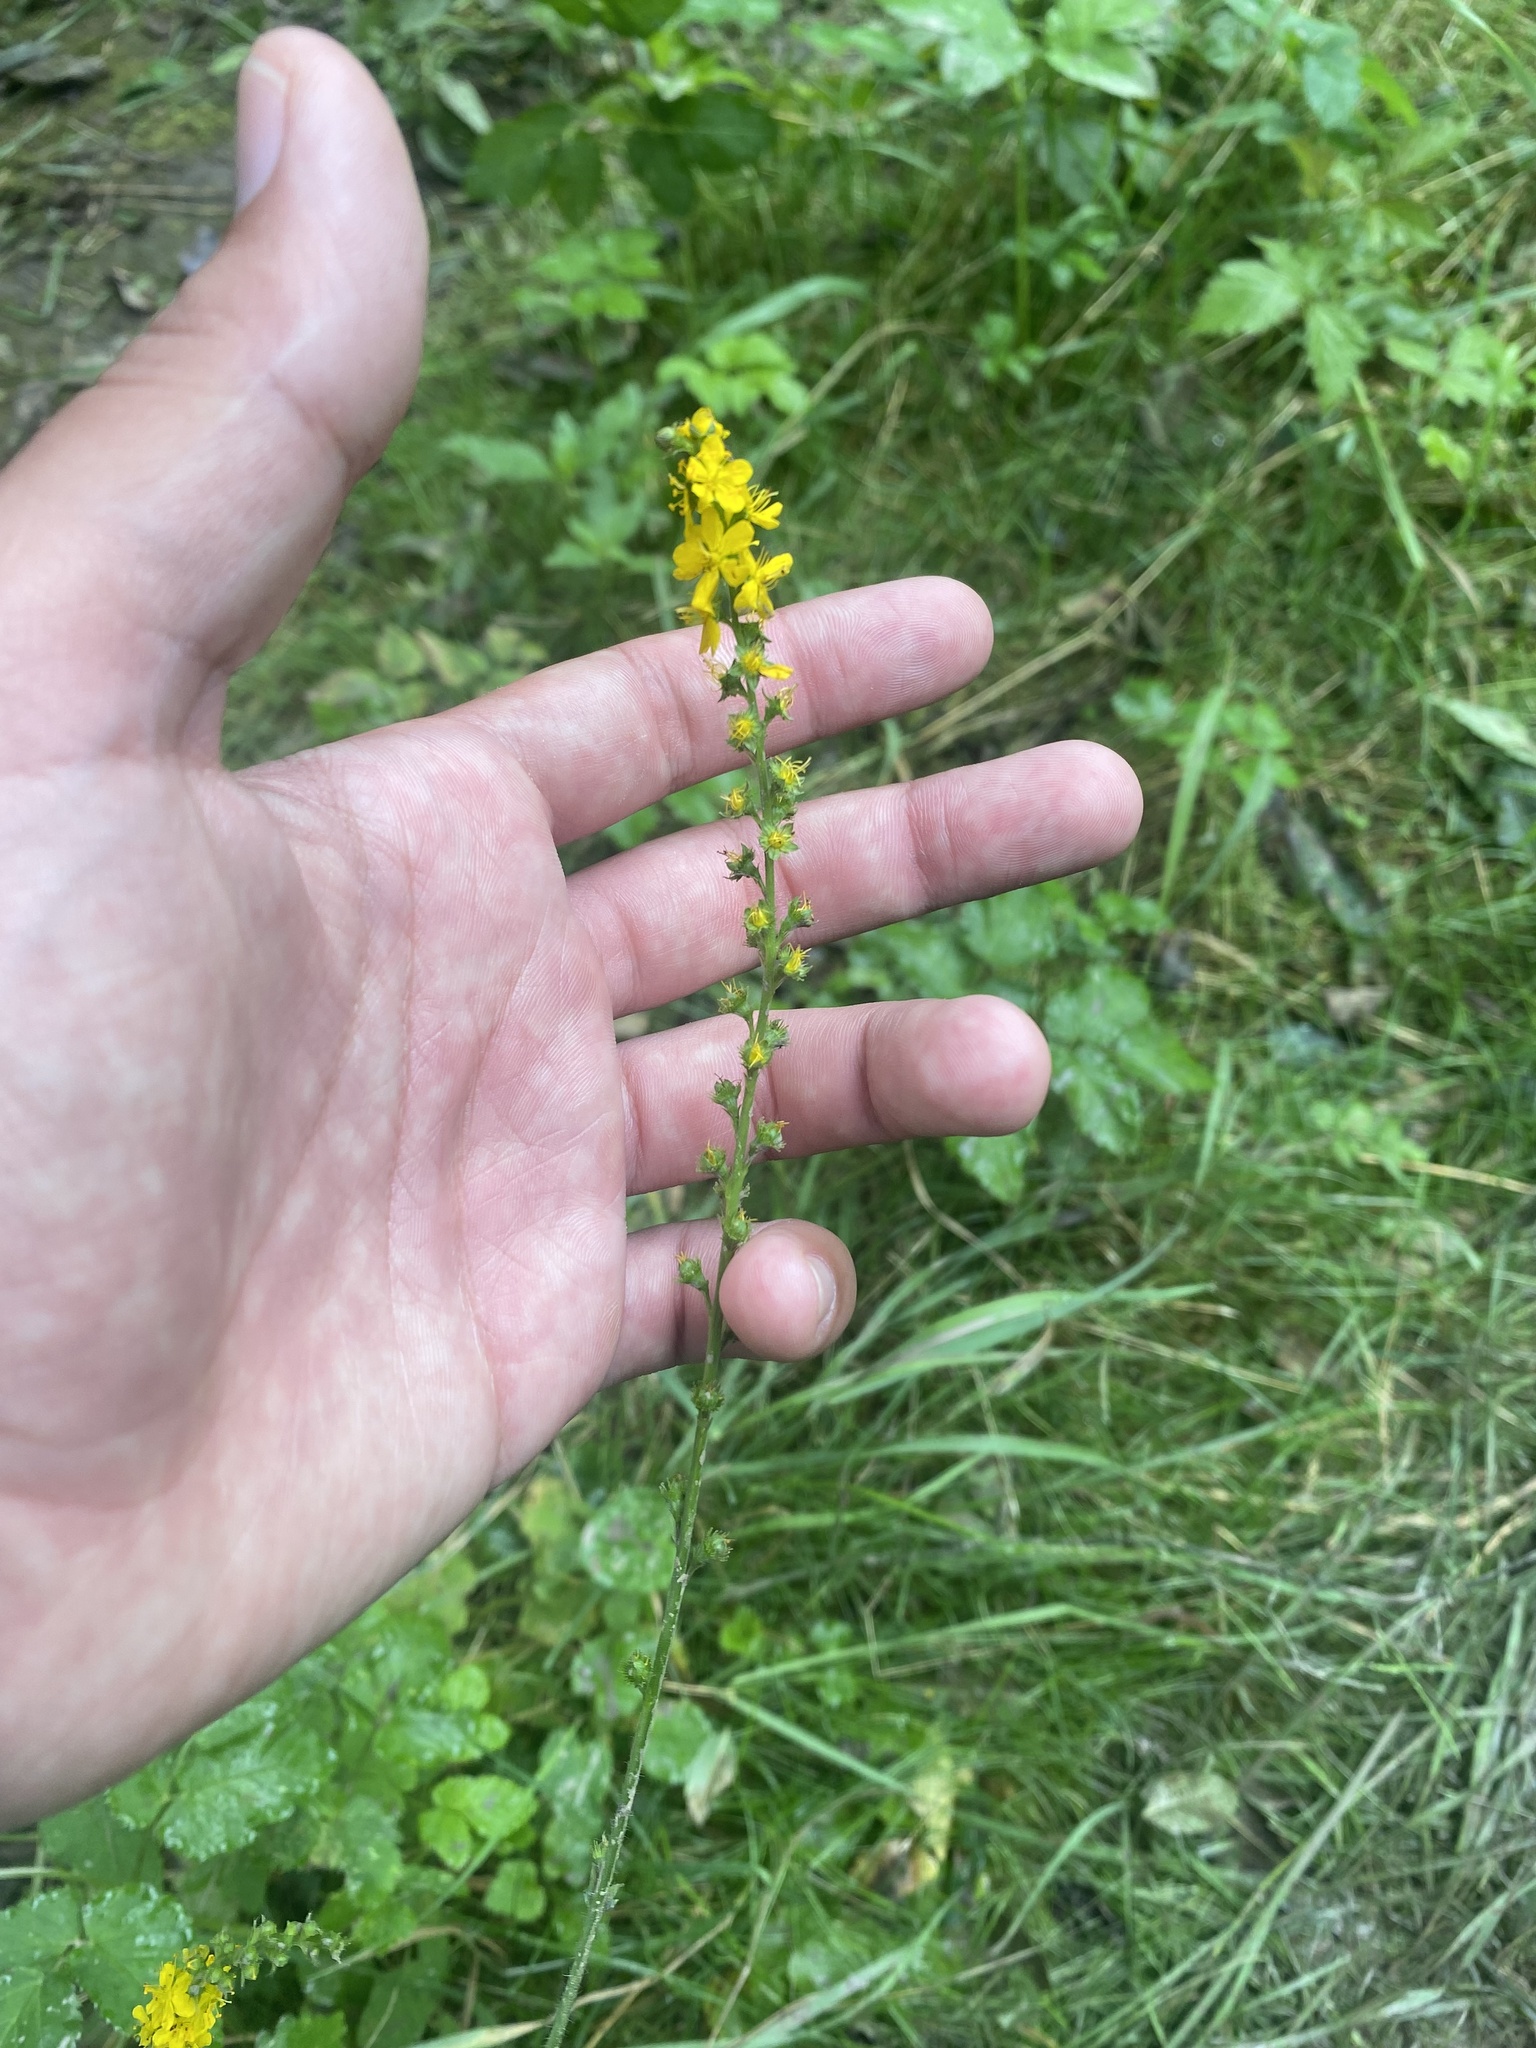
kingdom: Plantae
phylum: Tracheophyta
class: Magnoliopsida
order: Rosales
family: Rosaceae
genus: Agrimonia
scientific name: Agrimonia eupatoria
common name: Agrimony
